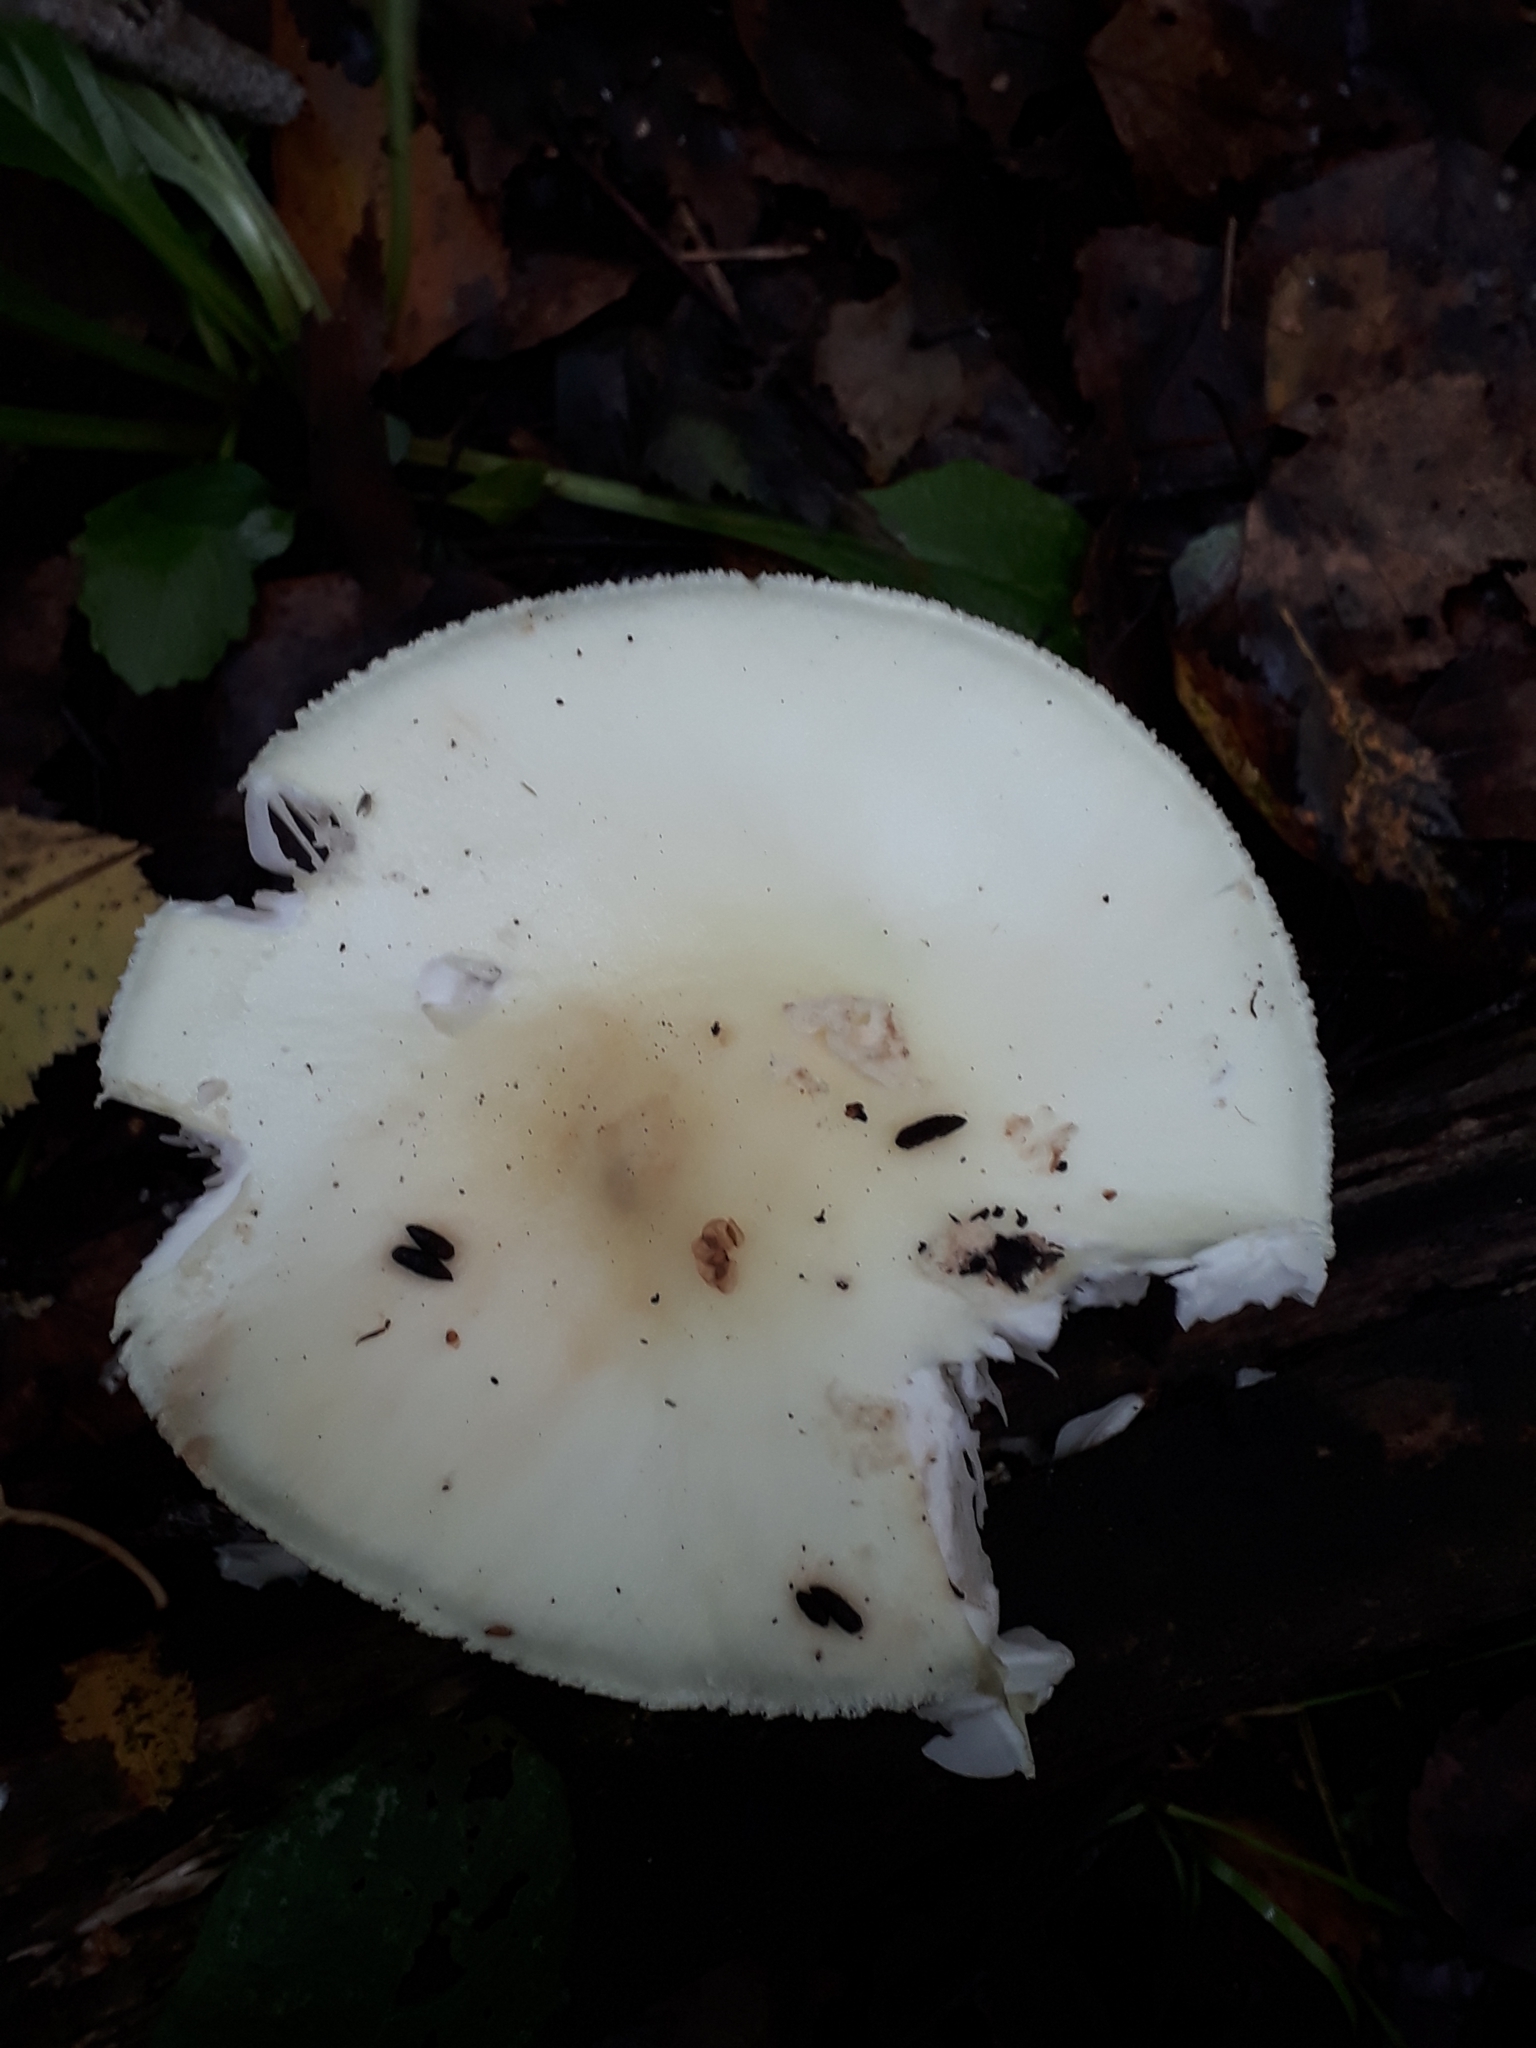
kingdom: Fungi
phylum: Basidiomycota
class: Agaricomycetes
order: Agaricales
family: Amanitaceae
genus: Amanita
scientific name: Amanita citrina
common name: False death-cap
